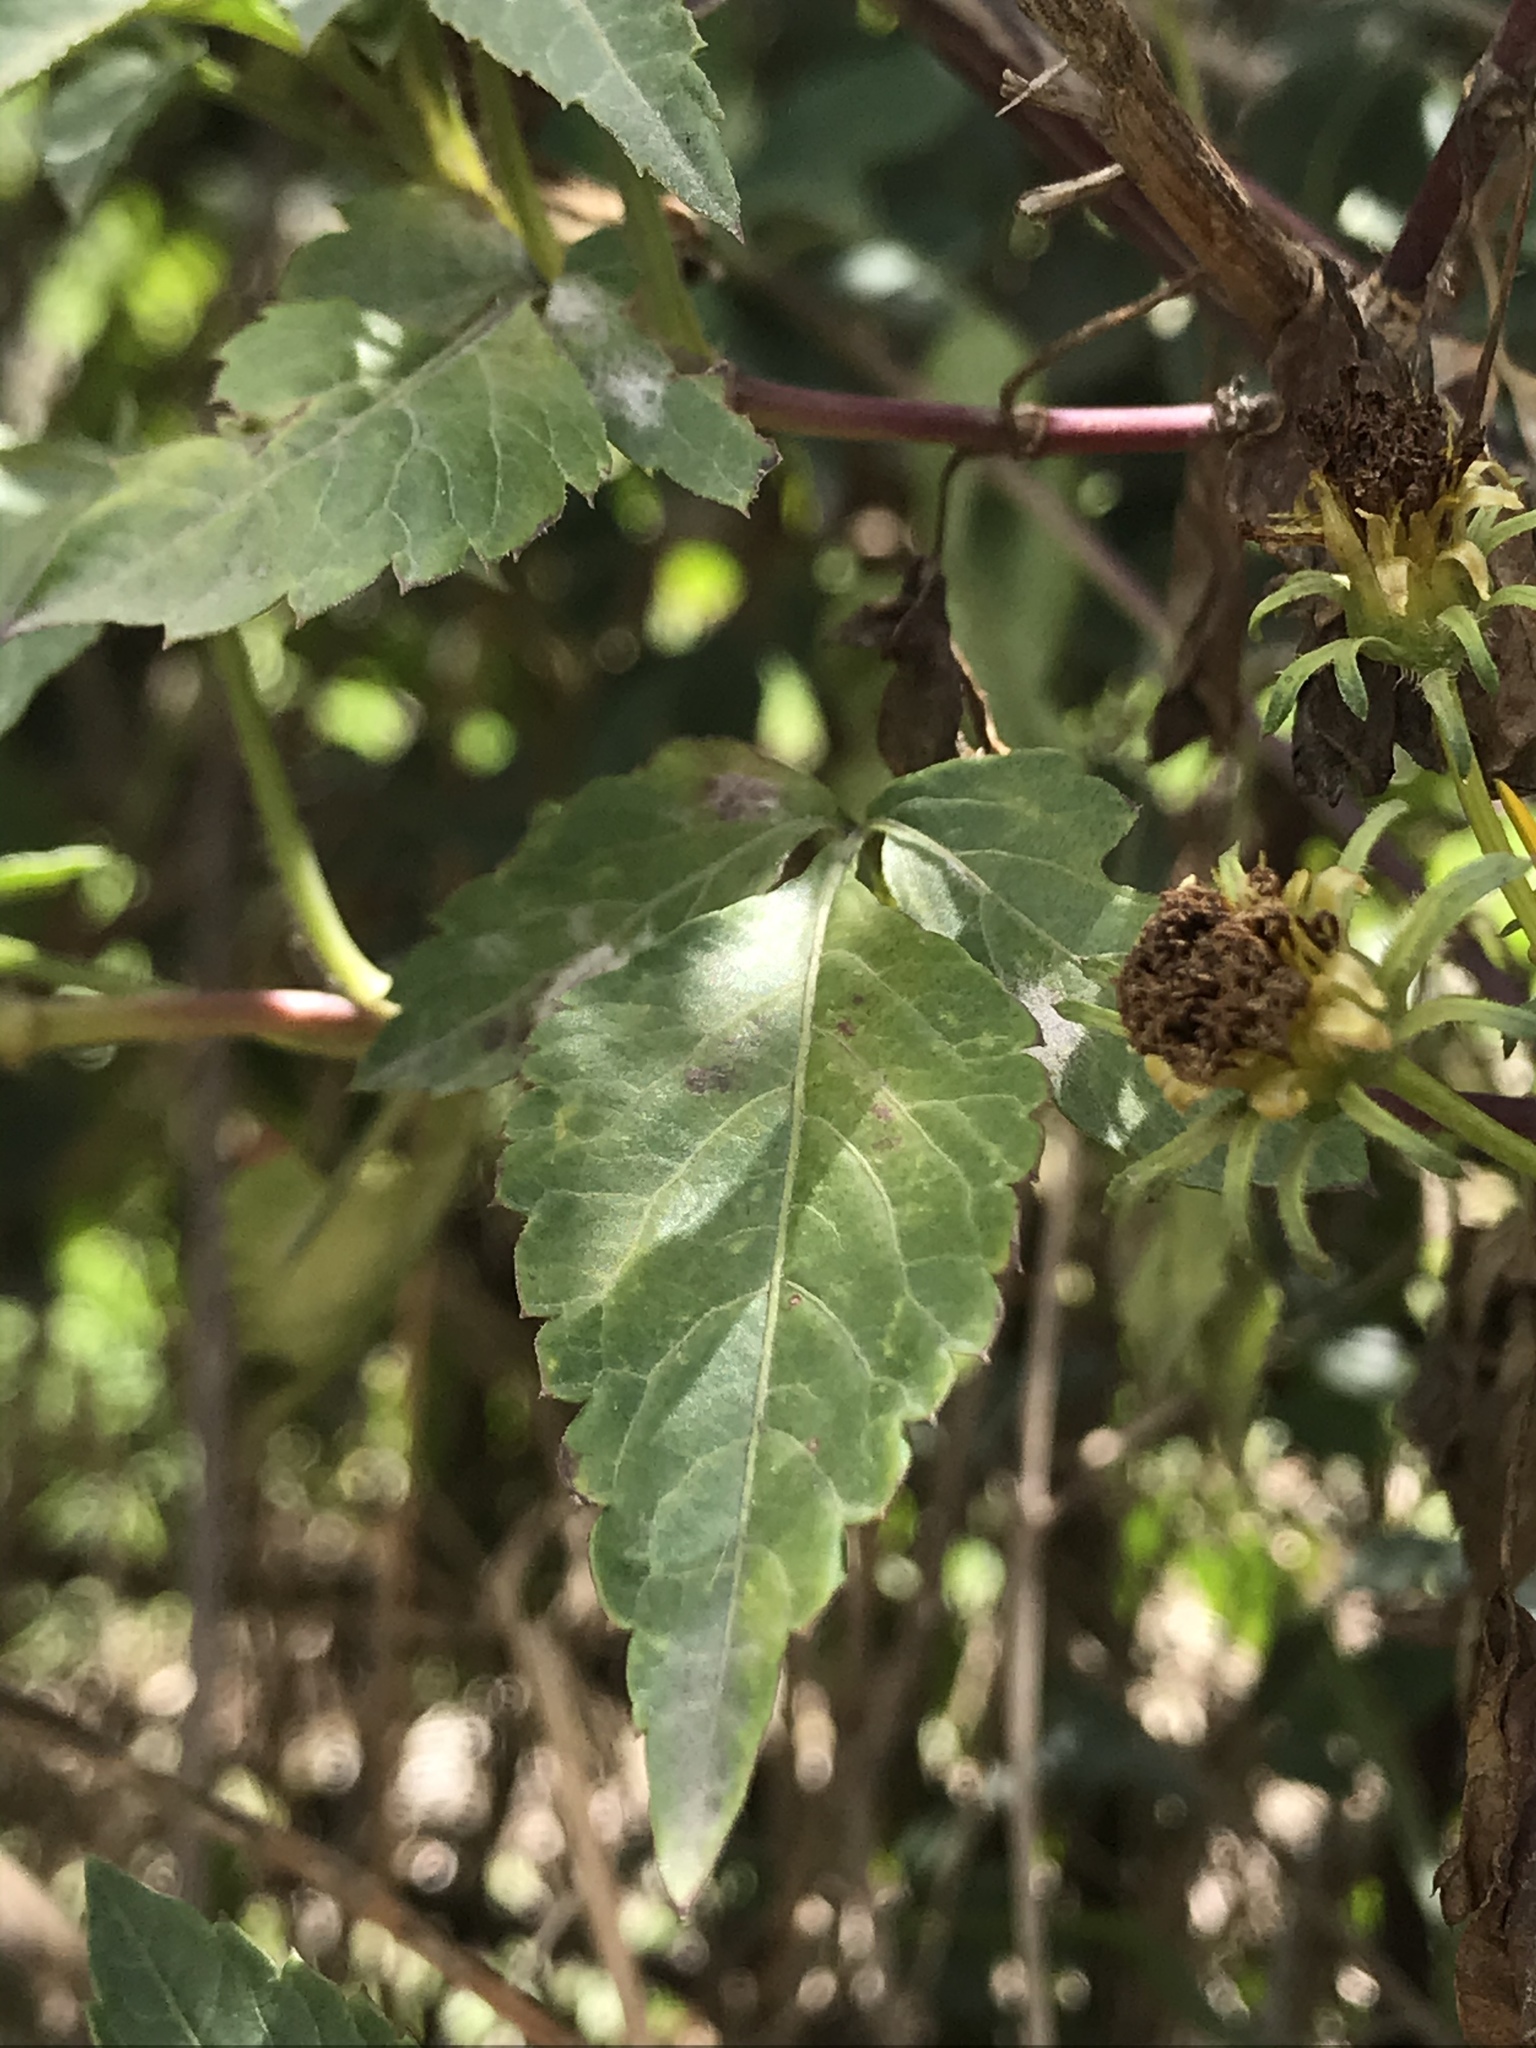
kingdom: Plantae
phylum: Tracheophyta
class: Magnoliopsida
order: Asterales
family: Asteraceae
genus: Bidens
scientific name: Bidens rubifolia
